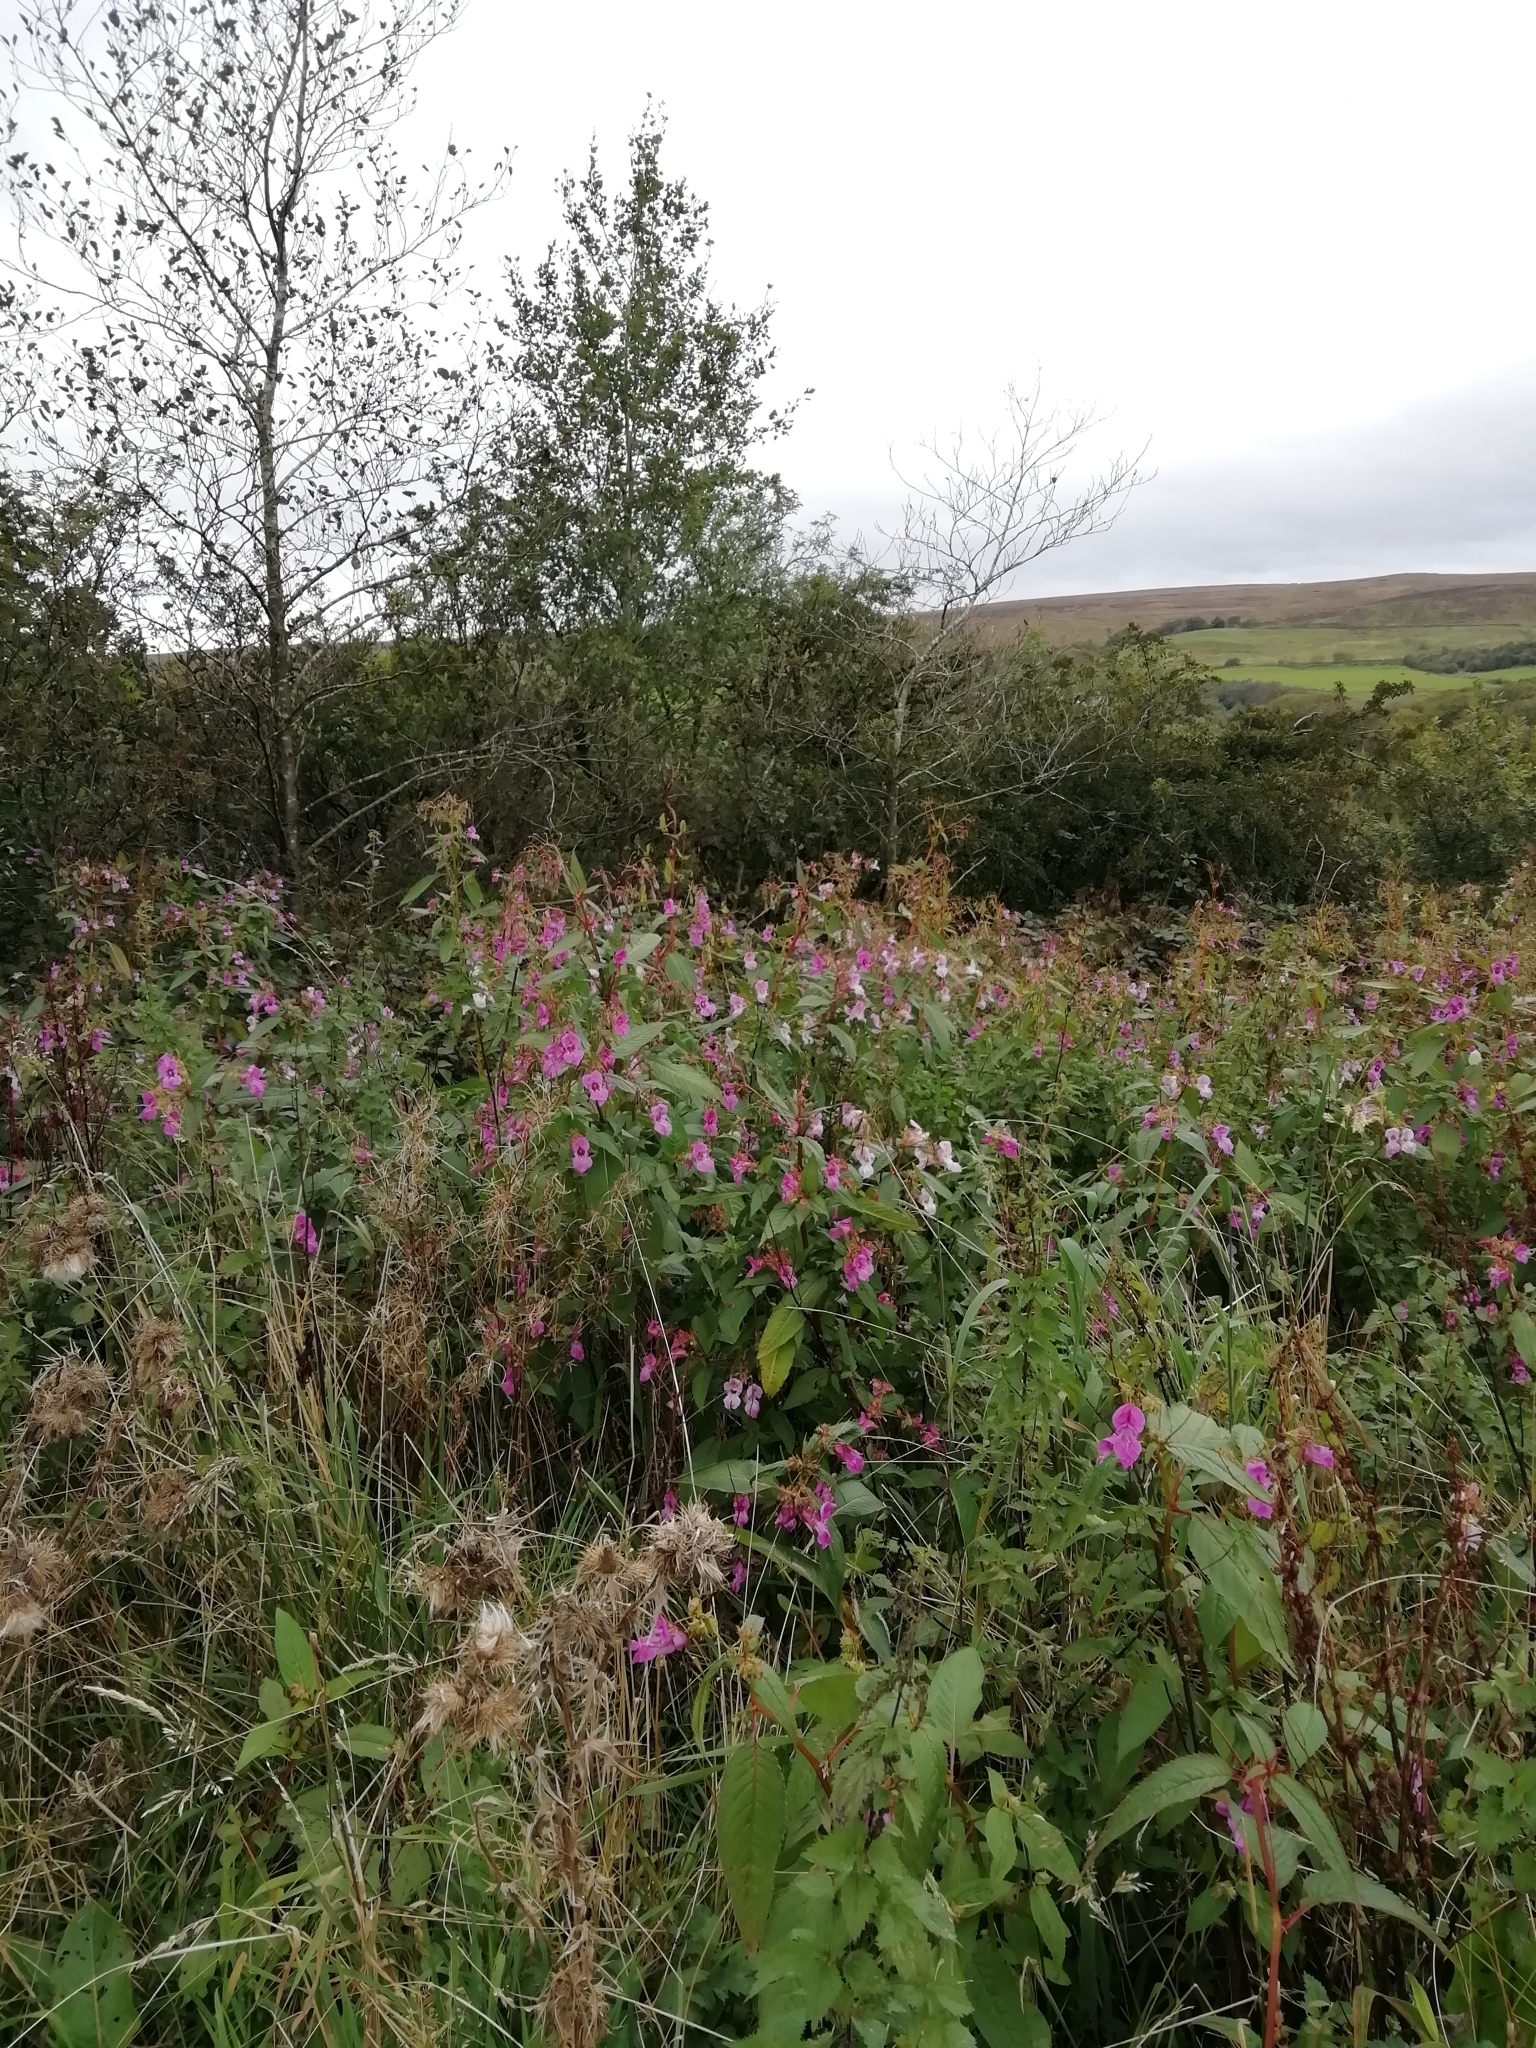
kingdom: Plantae
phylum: Tracheophyta
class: Magnoliopsida
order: Ericales
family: Balsaminaceae
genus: Impatiens
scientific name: Impatiens glandulifera
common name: Himalayan balsam
